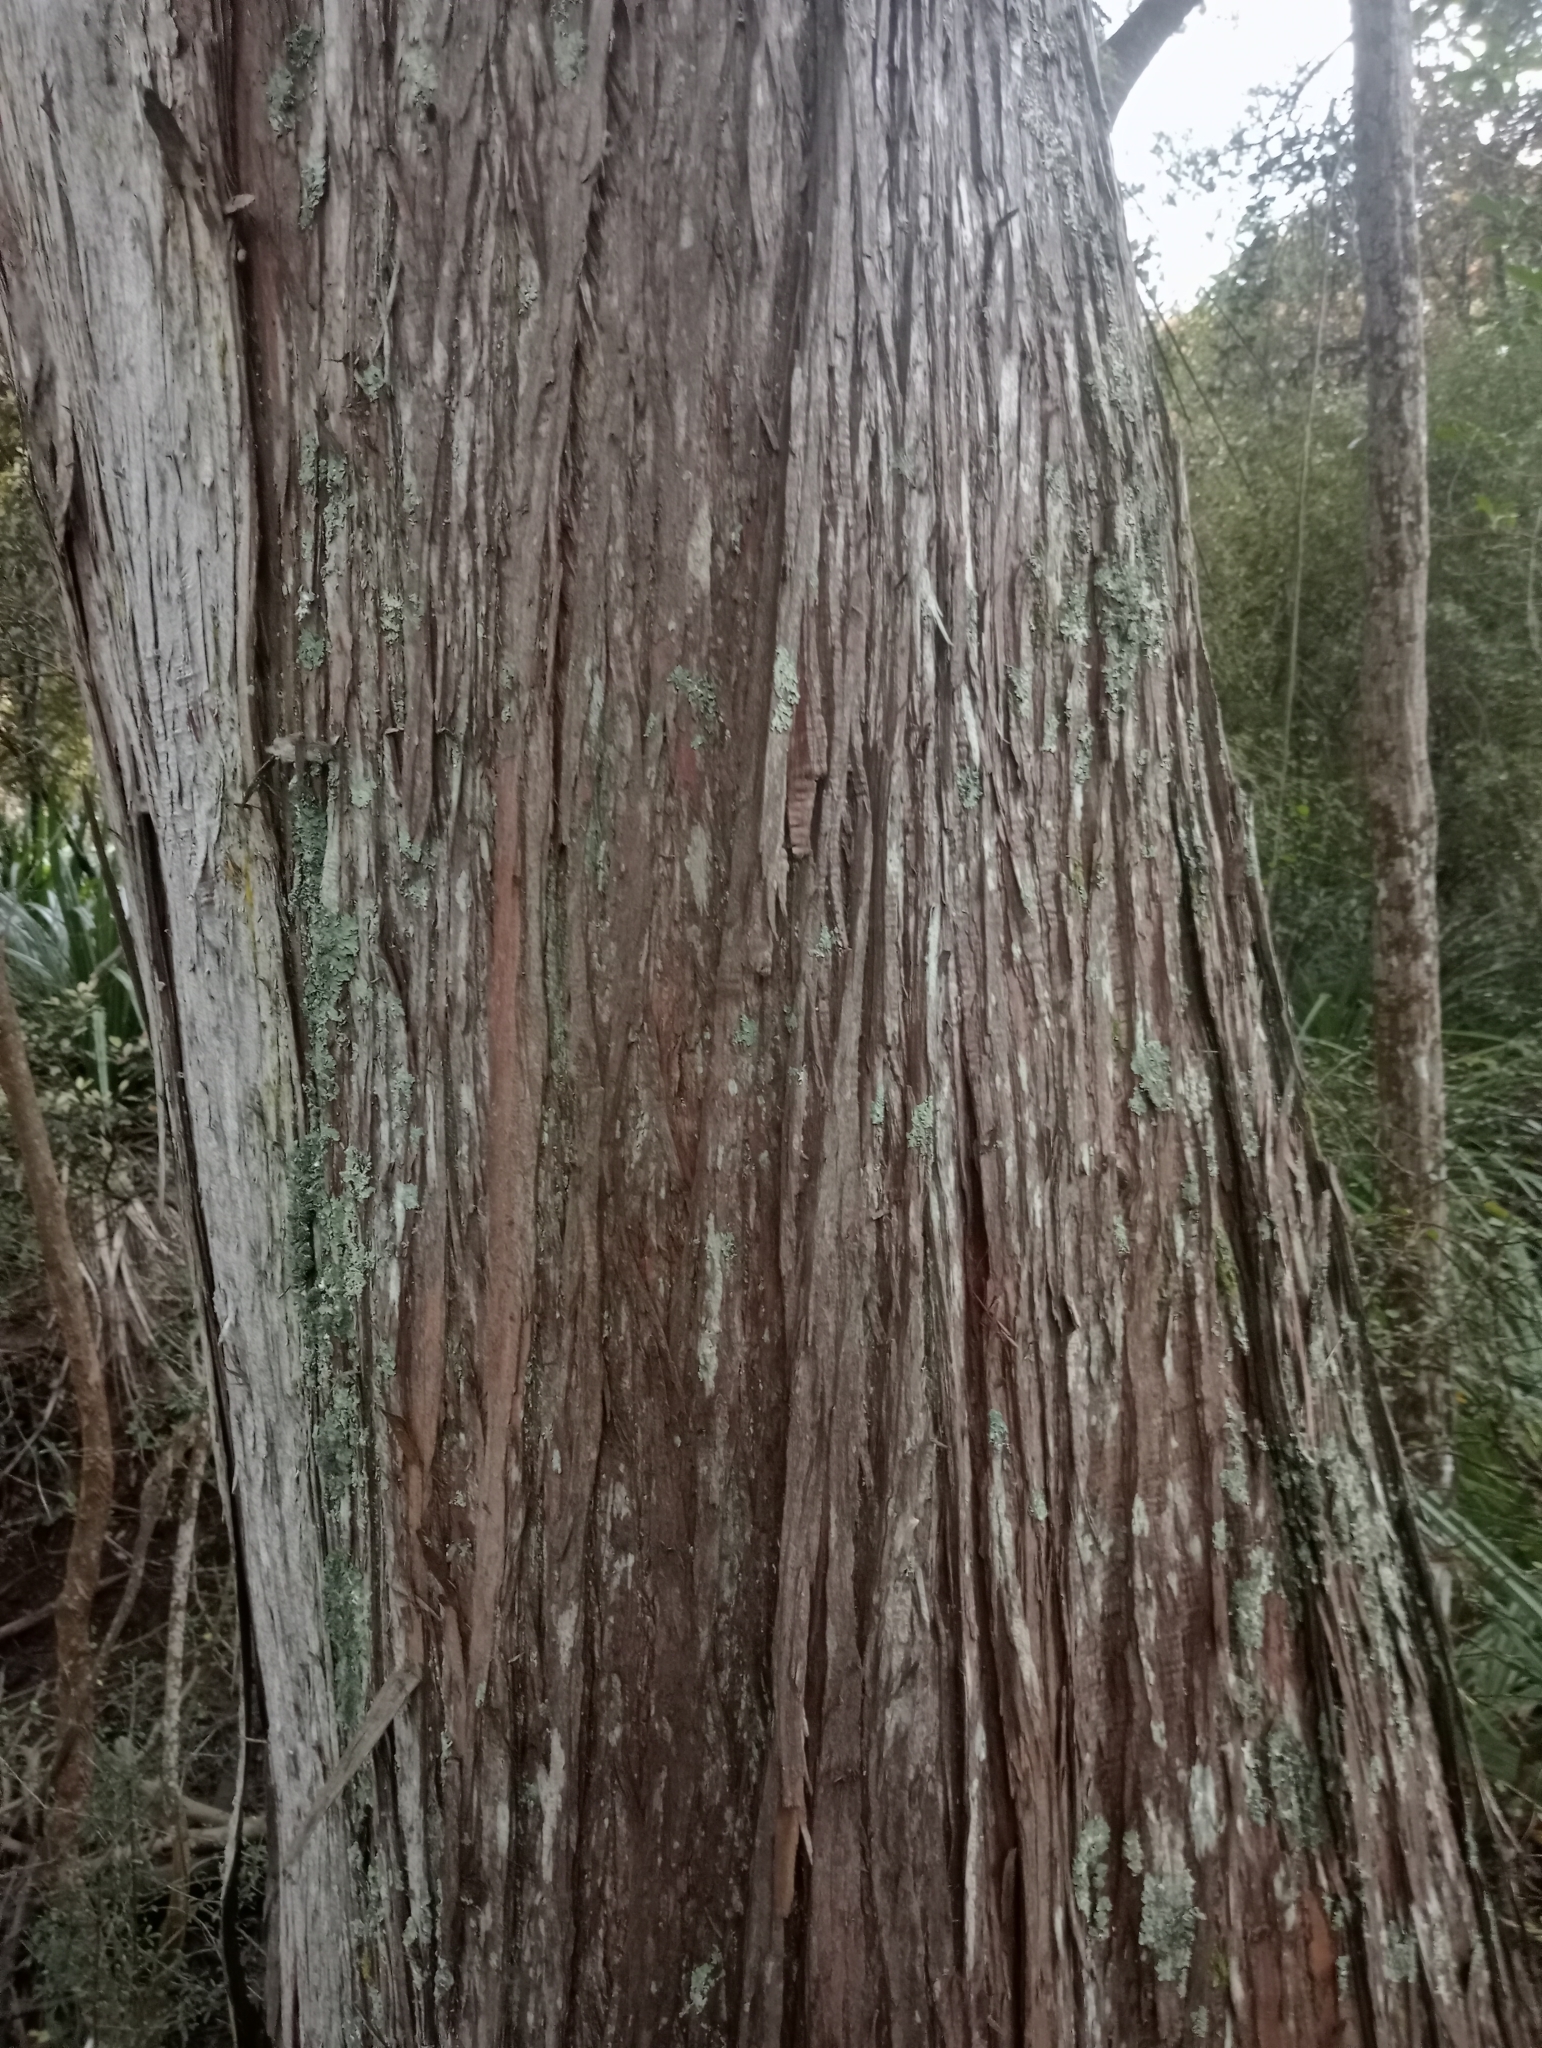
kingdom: Plantae
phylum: Tracheophyta
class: Pinopsida
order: Pinales
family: Podocarpaceae
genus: Podocarpus
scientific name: Podocarpus totara
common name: Totara
